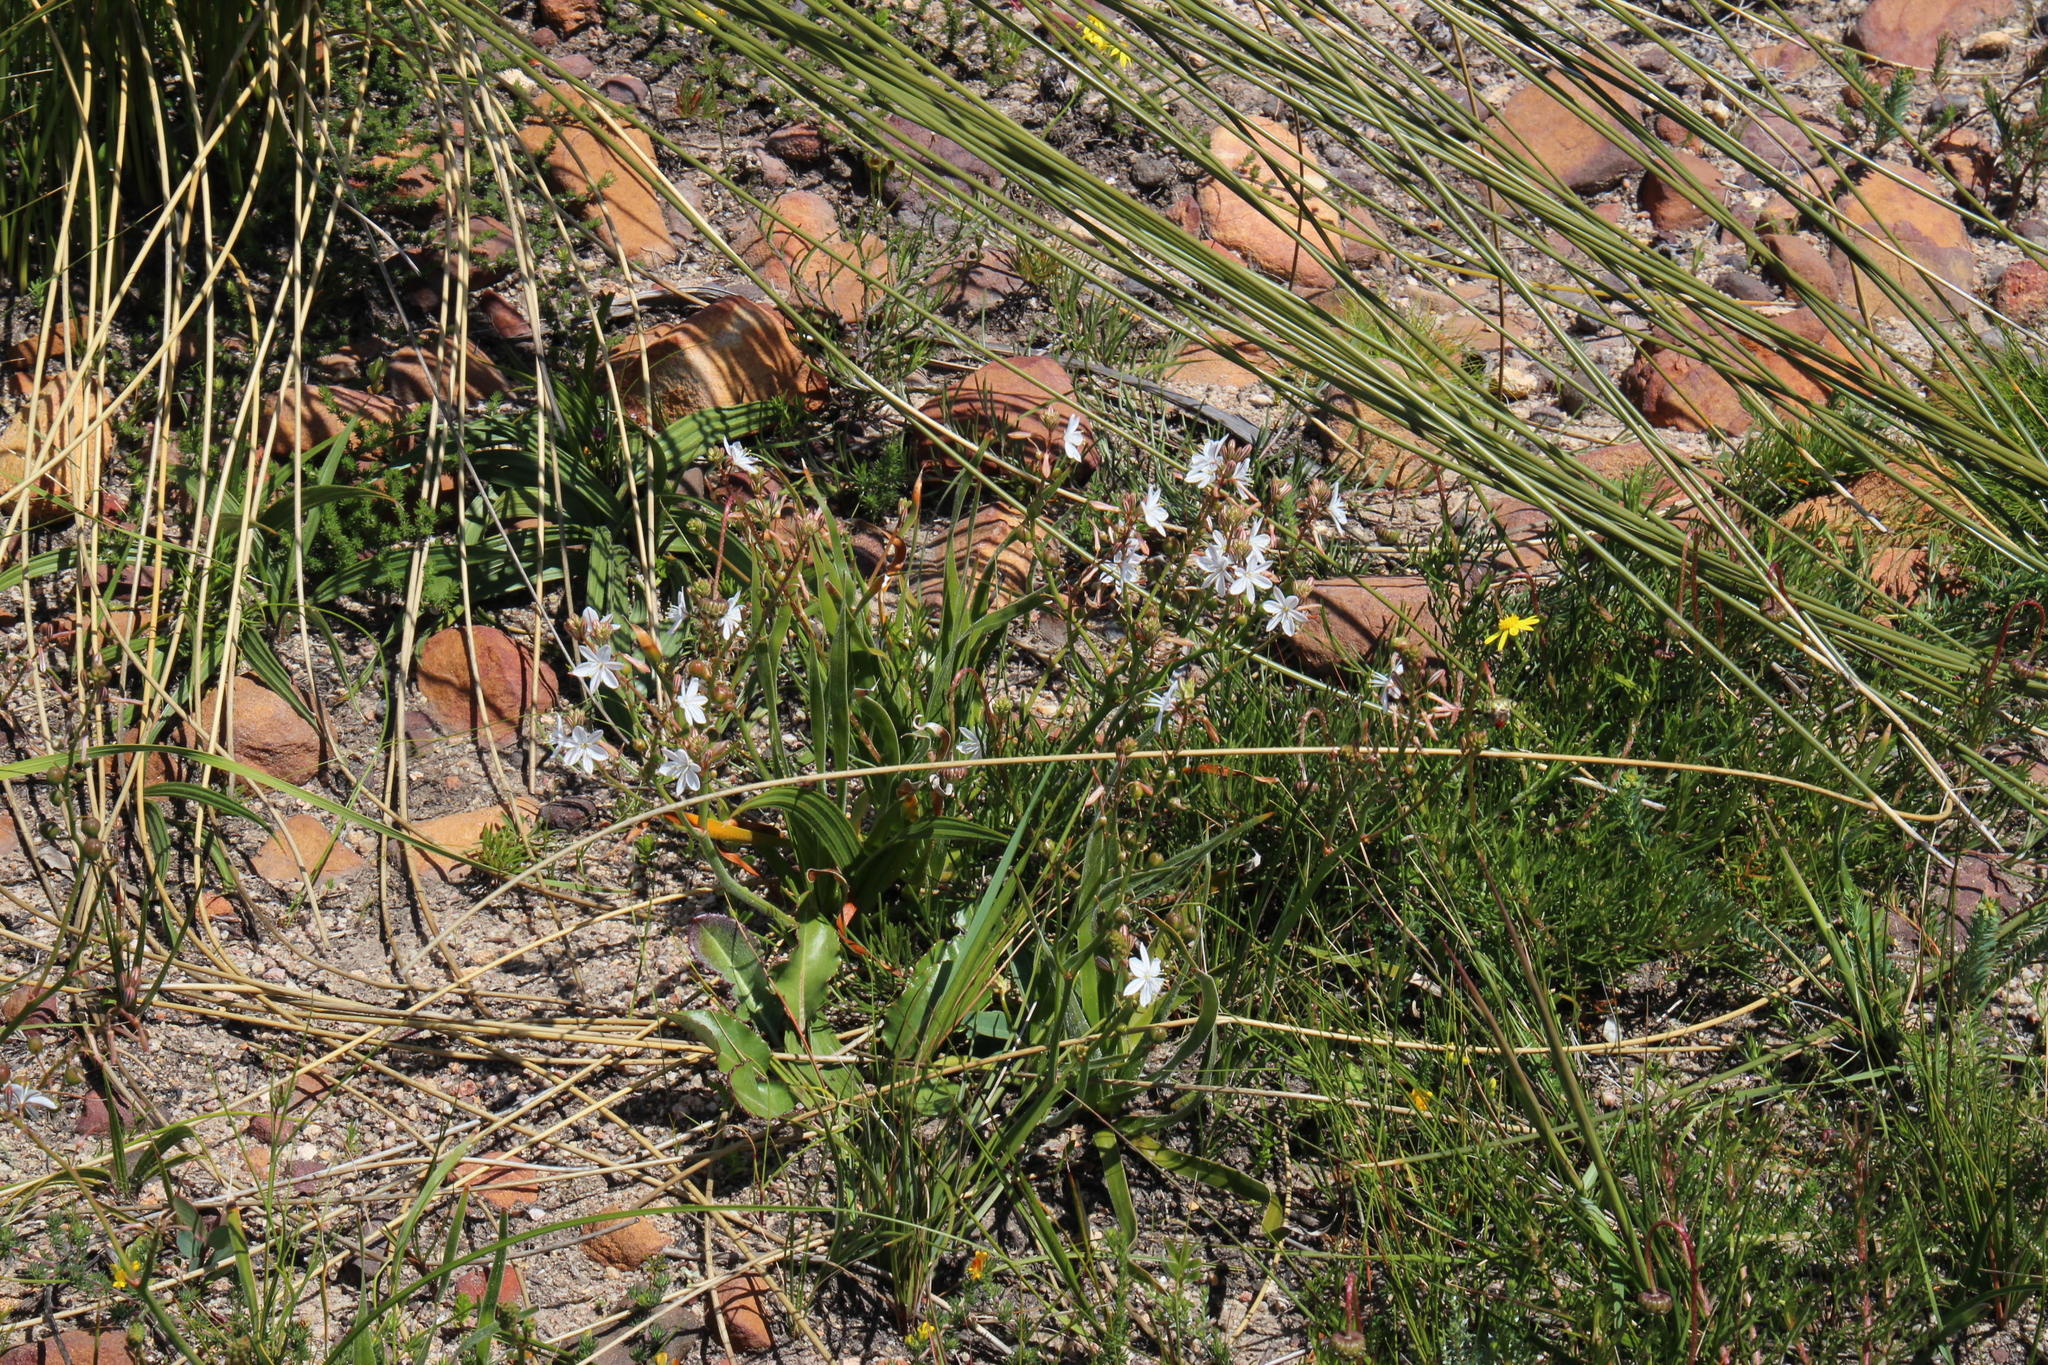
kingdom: Plantae
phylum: Tracheophyta
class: Liliopsida
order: Asparagales
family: Asphodelaceae
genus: Trachyandra
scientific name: Trachyandra hirsuta
